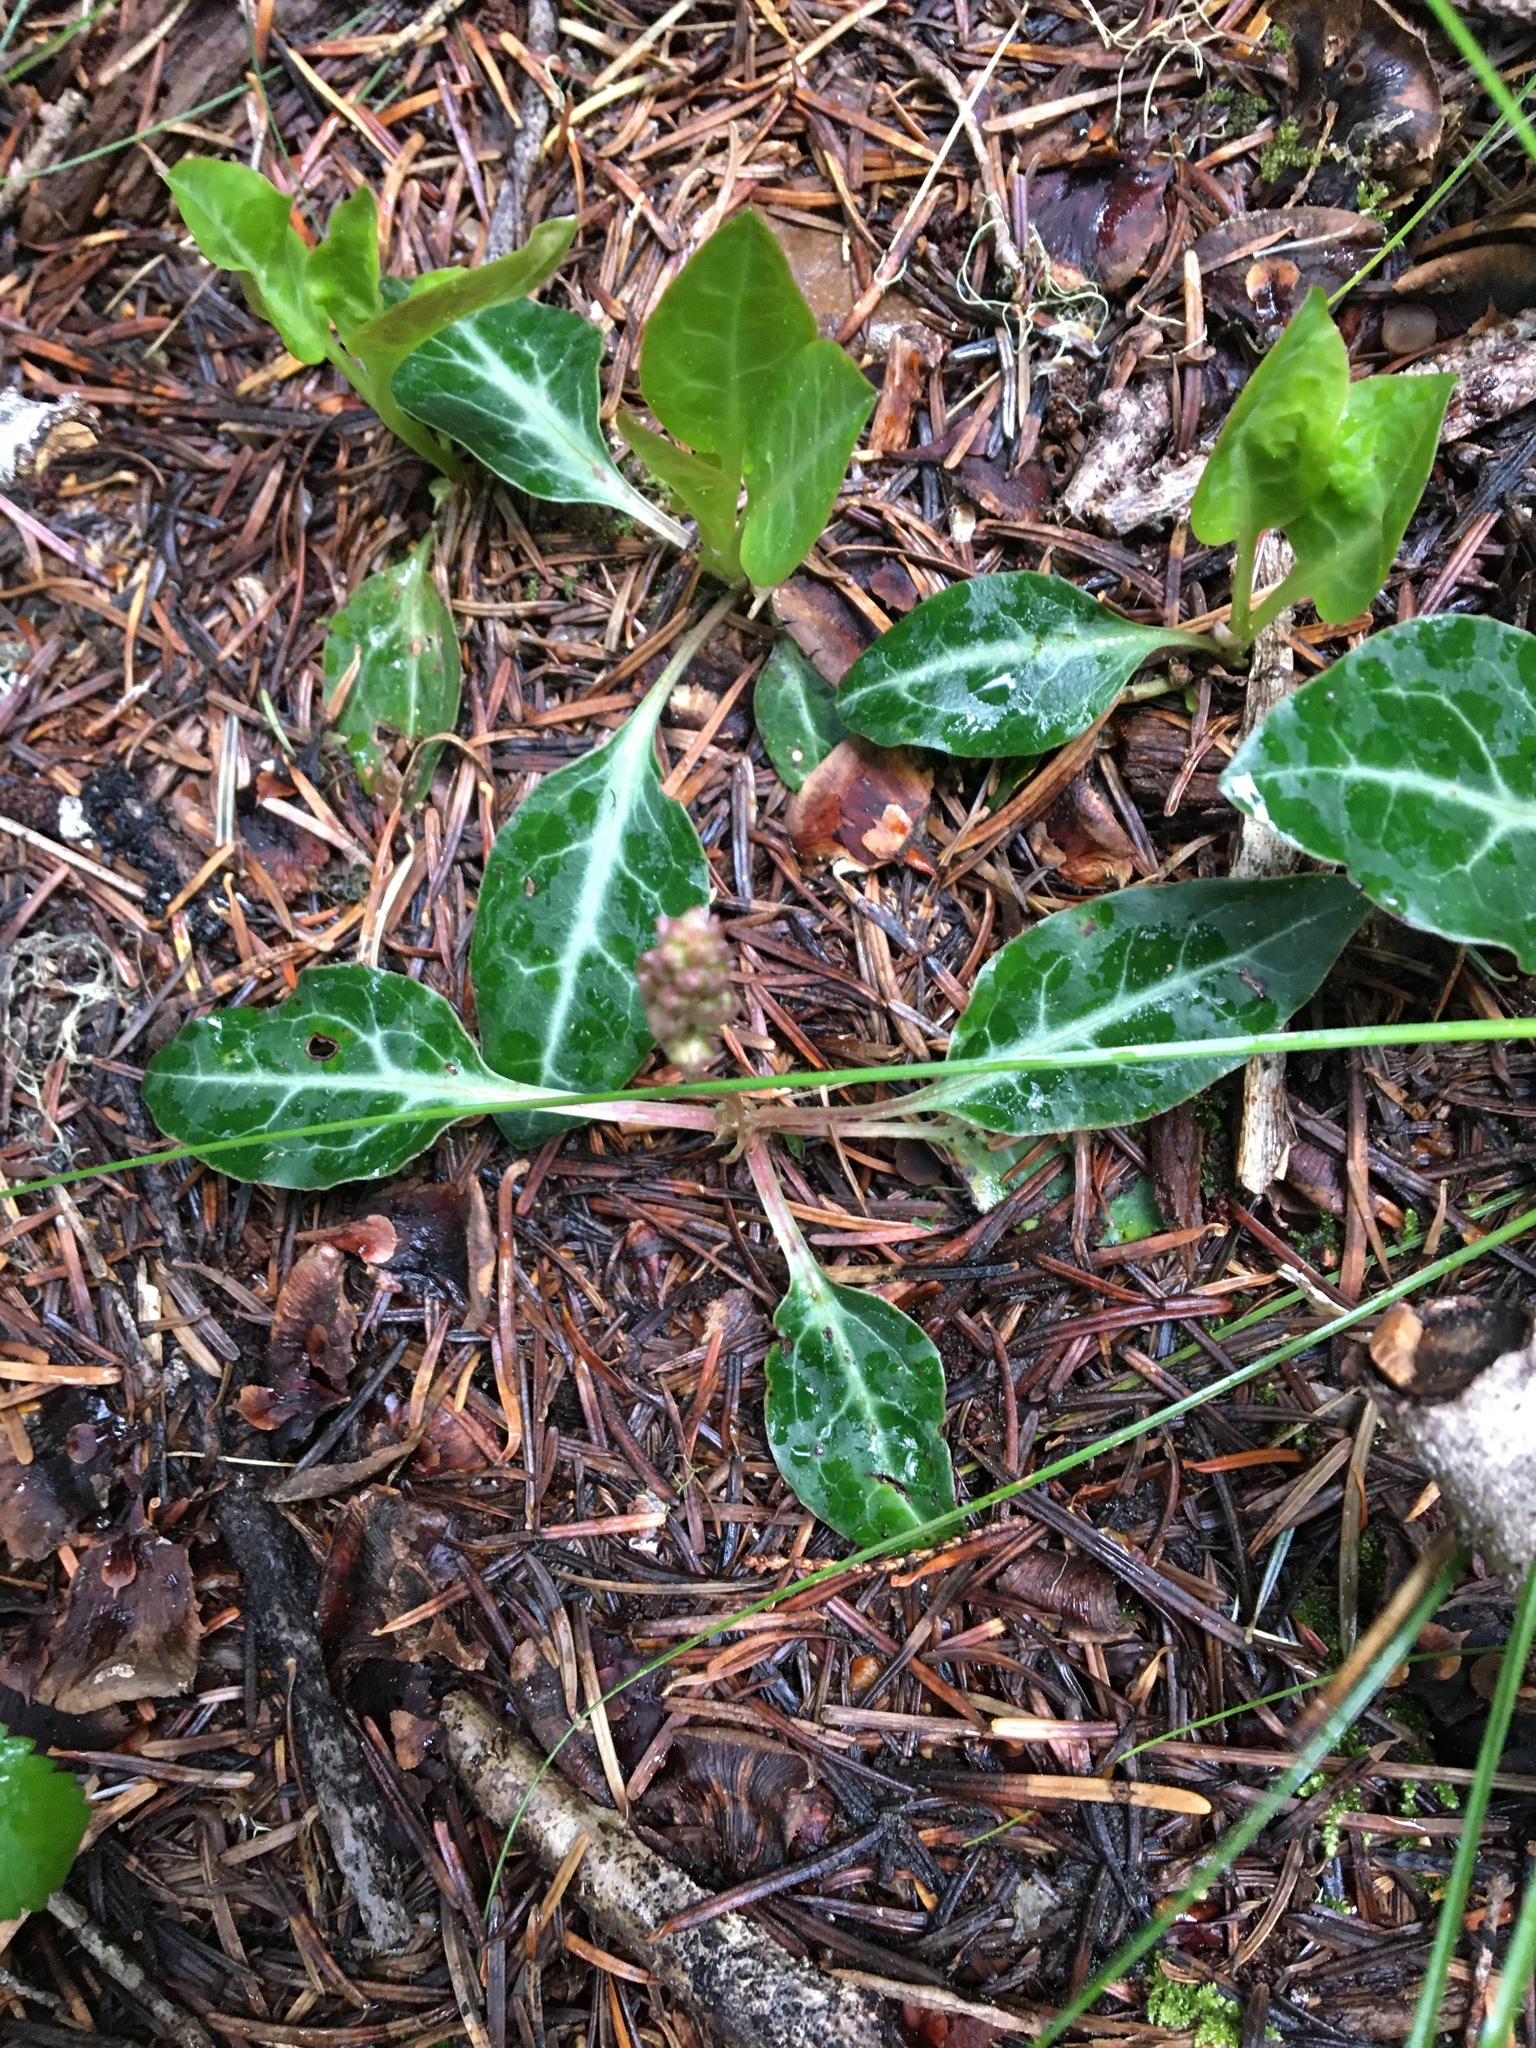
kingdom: Plantae
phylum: Tracheophyta
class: Magnoliopsida
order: Ericales
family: Ericaceae
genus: Pyrola
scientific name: Pyrola picta
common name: White-vein wintergreen
